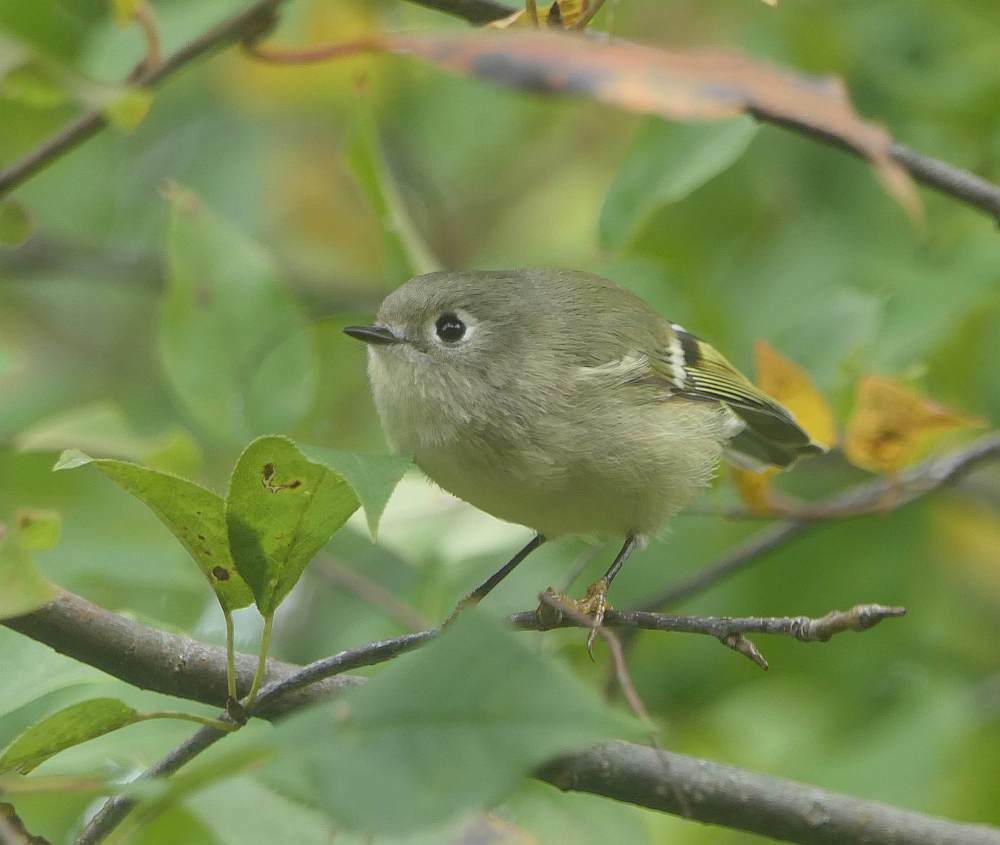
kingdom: Animalia
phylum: Chordata
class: Aves
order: Passeriformes
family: Regulidae
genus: Regulus
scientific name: Regulus calendula
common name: Ruby-crowned kinglet
